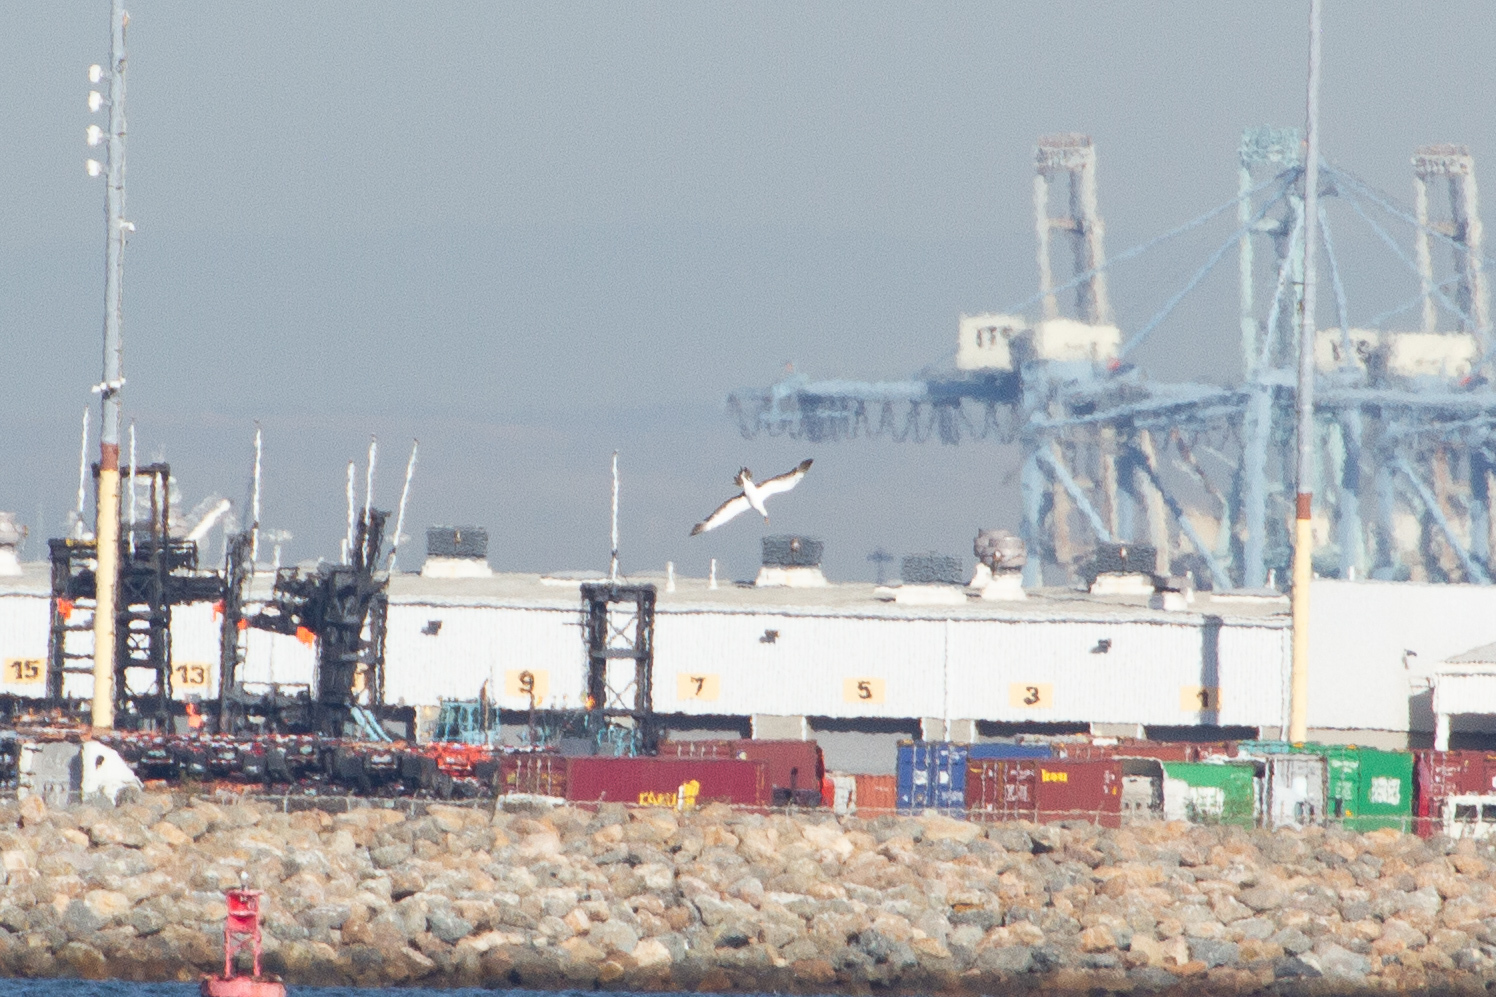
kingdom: Animalia
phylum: Chordata
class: Aves
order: Suliformes
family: Sulidae
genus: Sula
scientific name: Sula granti
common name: Nazca booby
